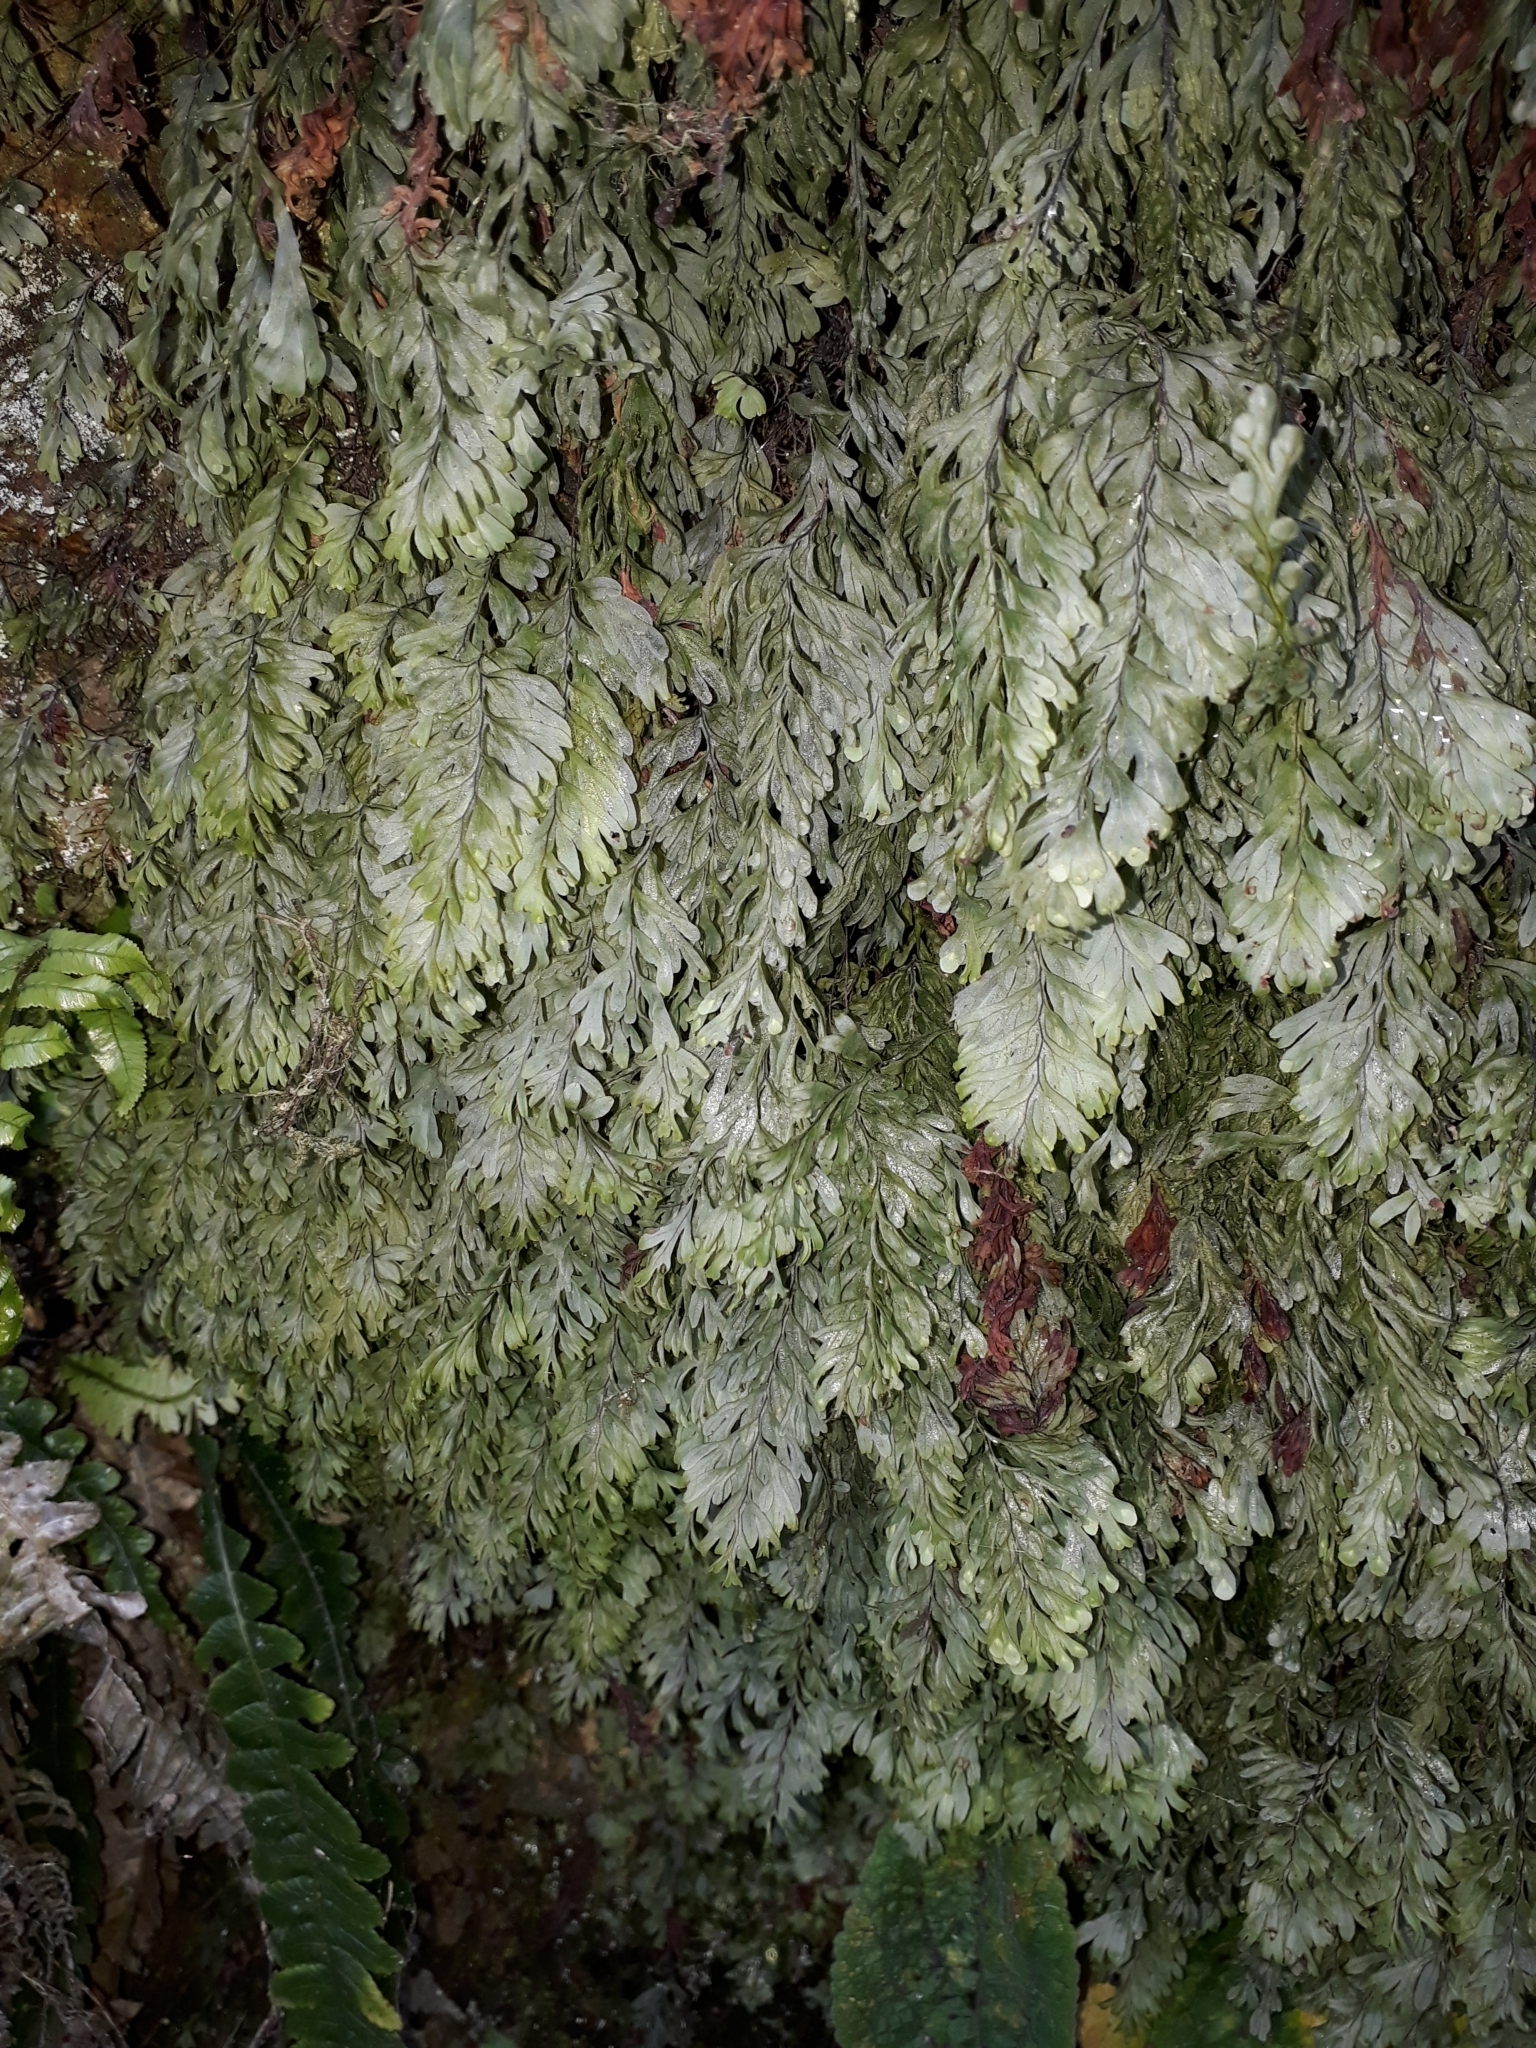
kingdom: Plantae
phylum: Tracheophyta
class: Polypodiopsida
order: Hymenophyllales
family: Hymenophyllaceae
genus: Hymenophyllum
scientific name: Hymenophyllum rarum
